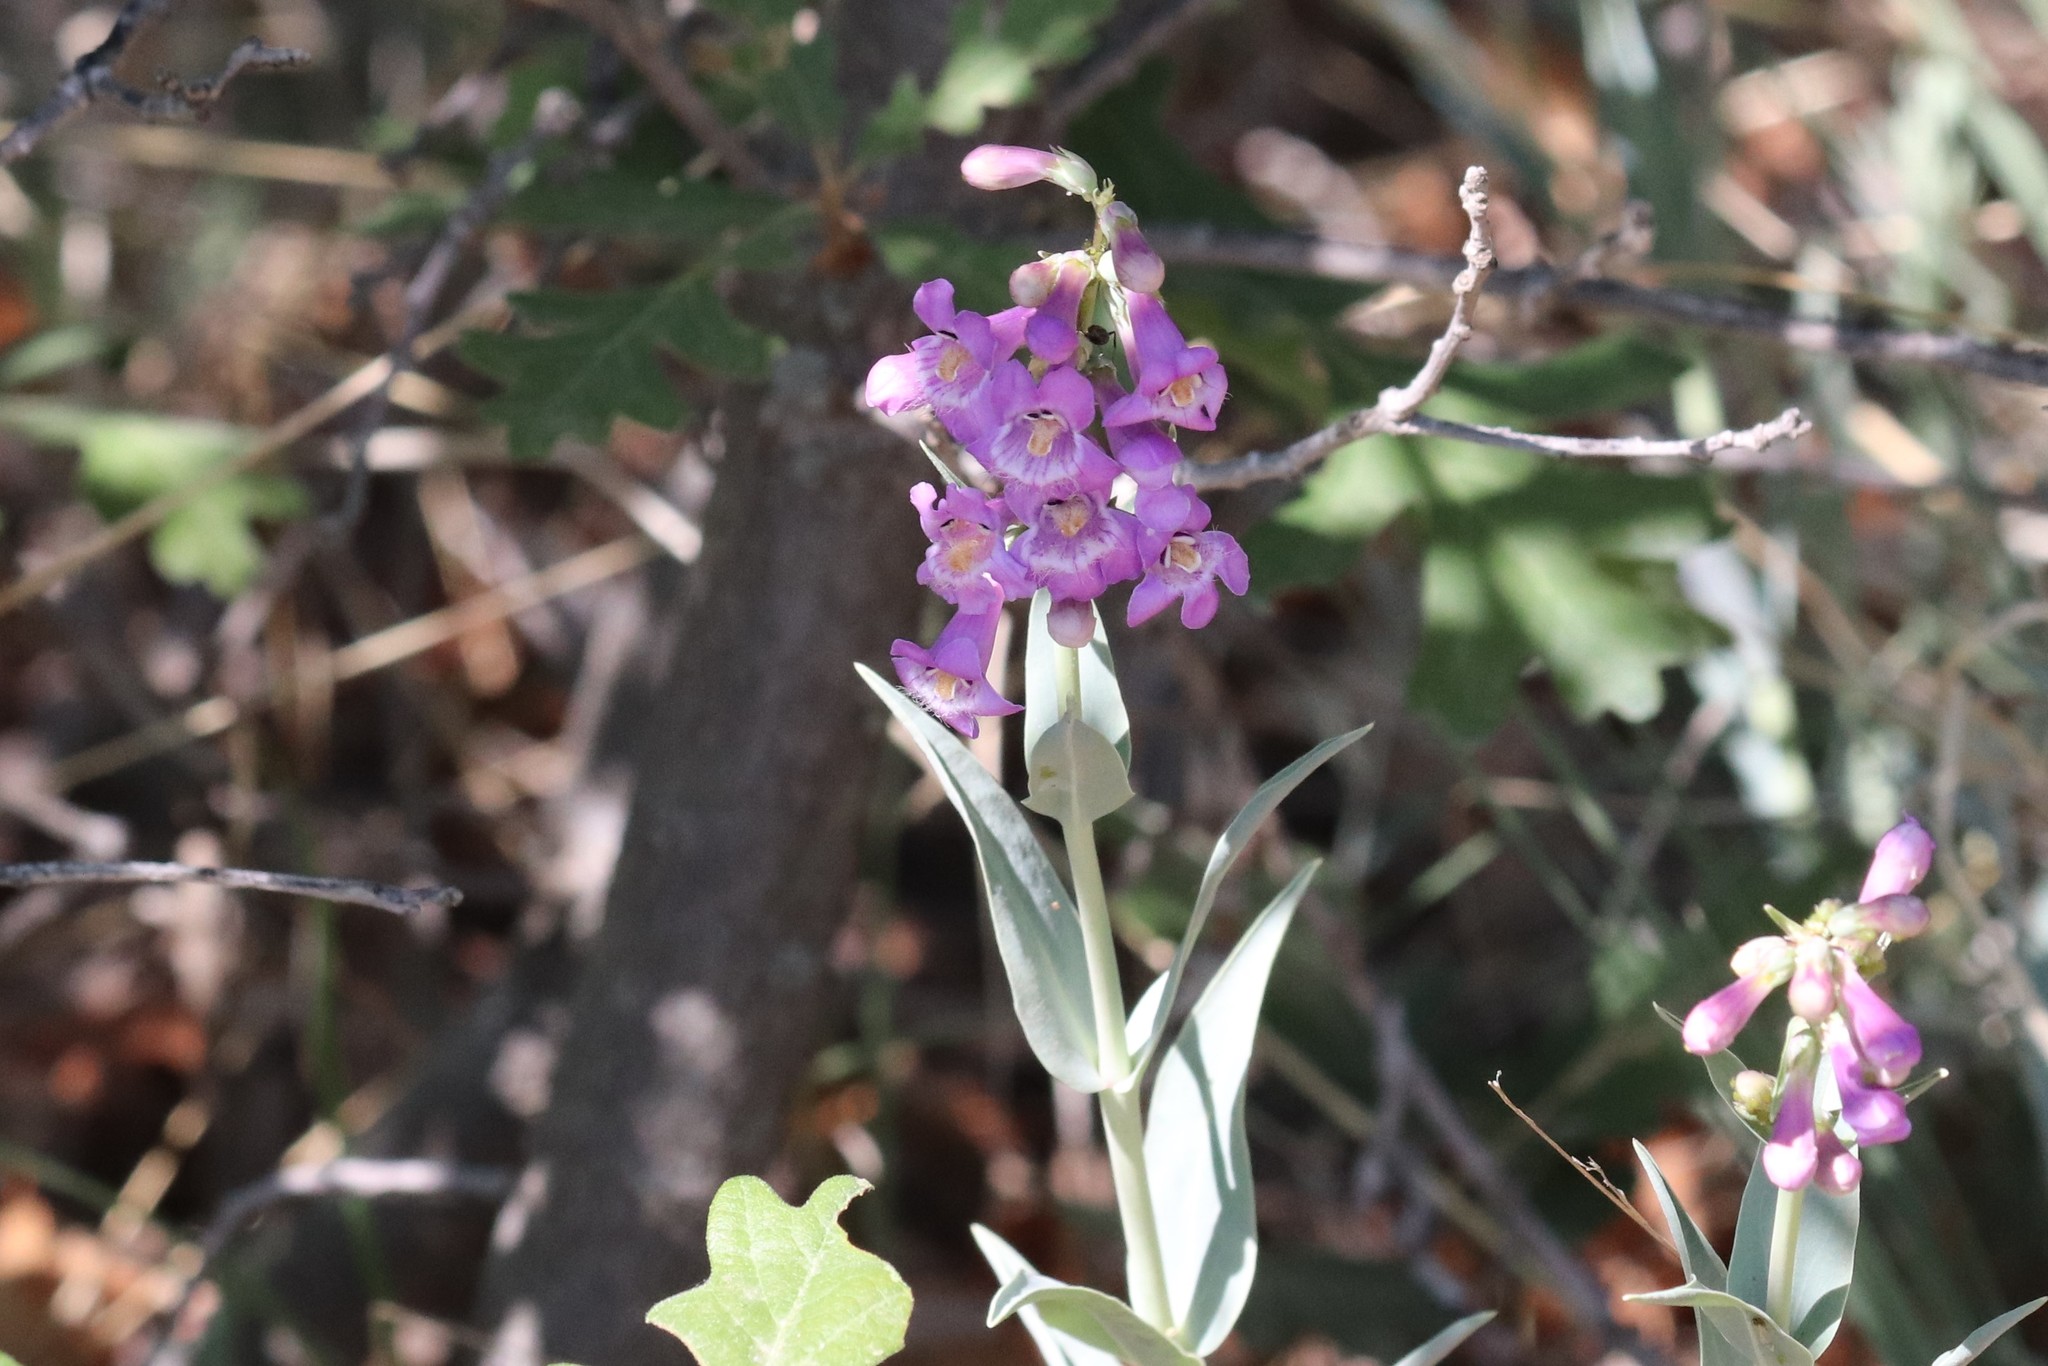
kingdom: Plantae
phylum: Tracheophyta
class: Magnoliopsida
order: Lamiales
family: Plantaginaceae
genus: Penstemon
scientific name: Penstemon secundiflorus
